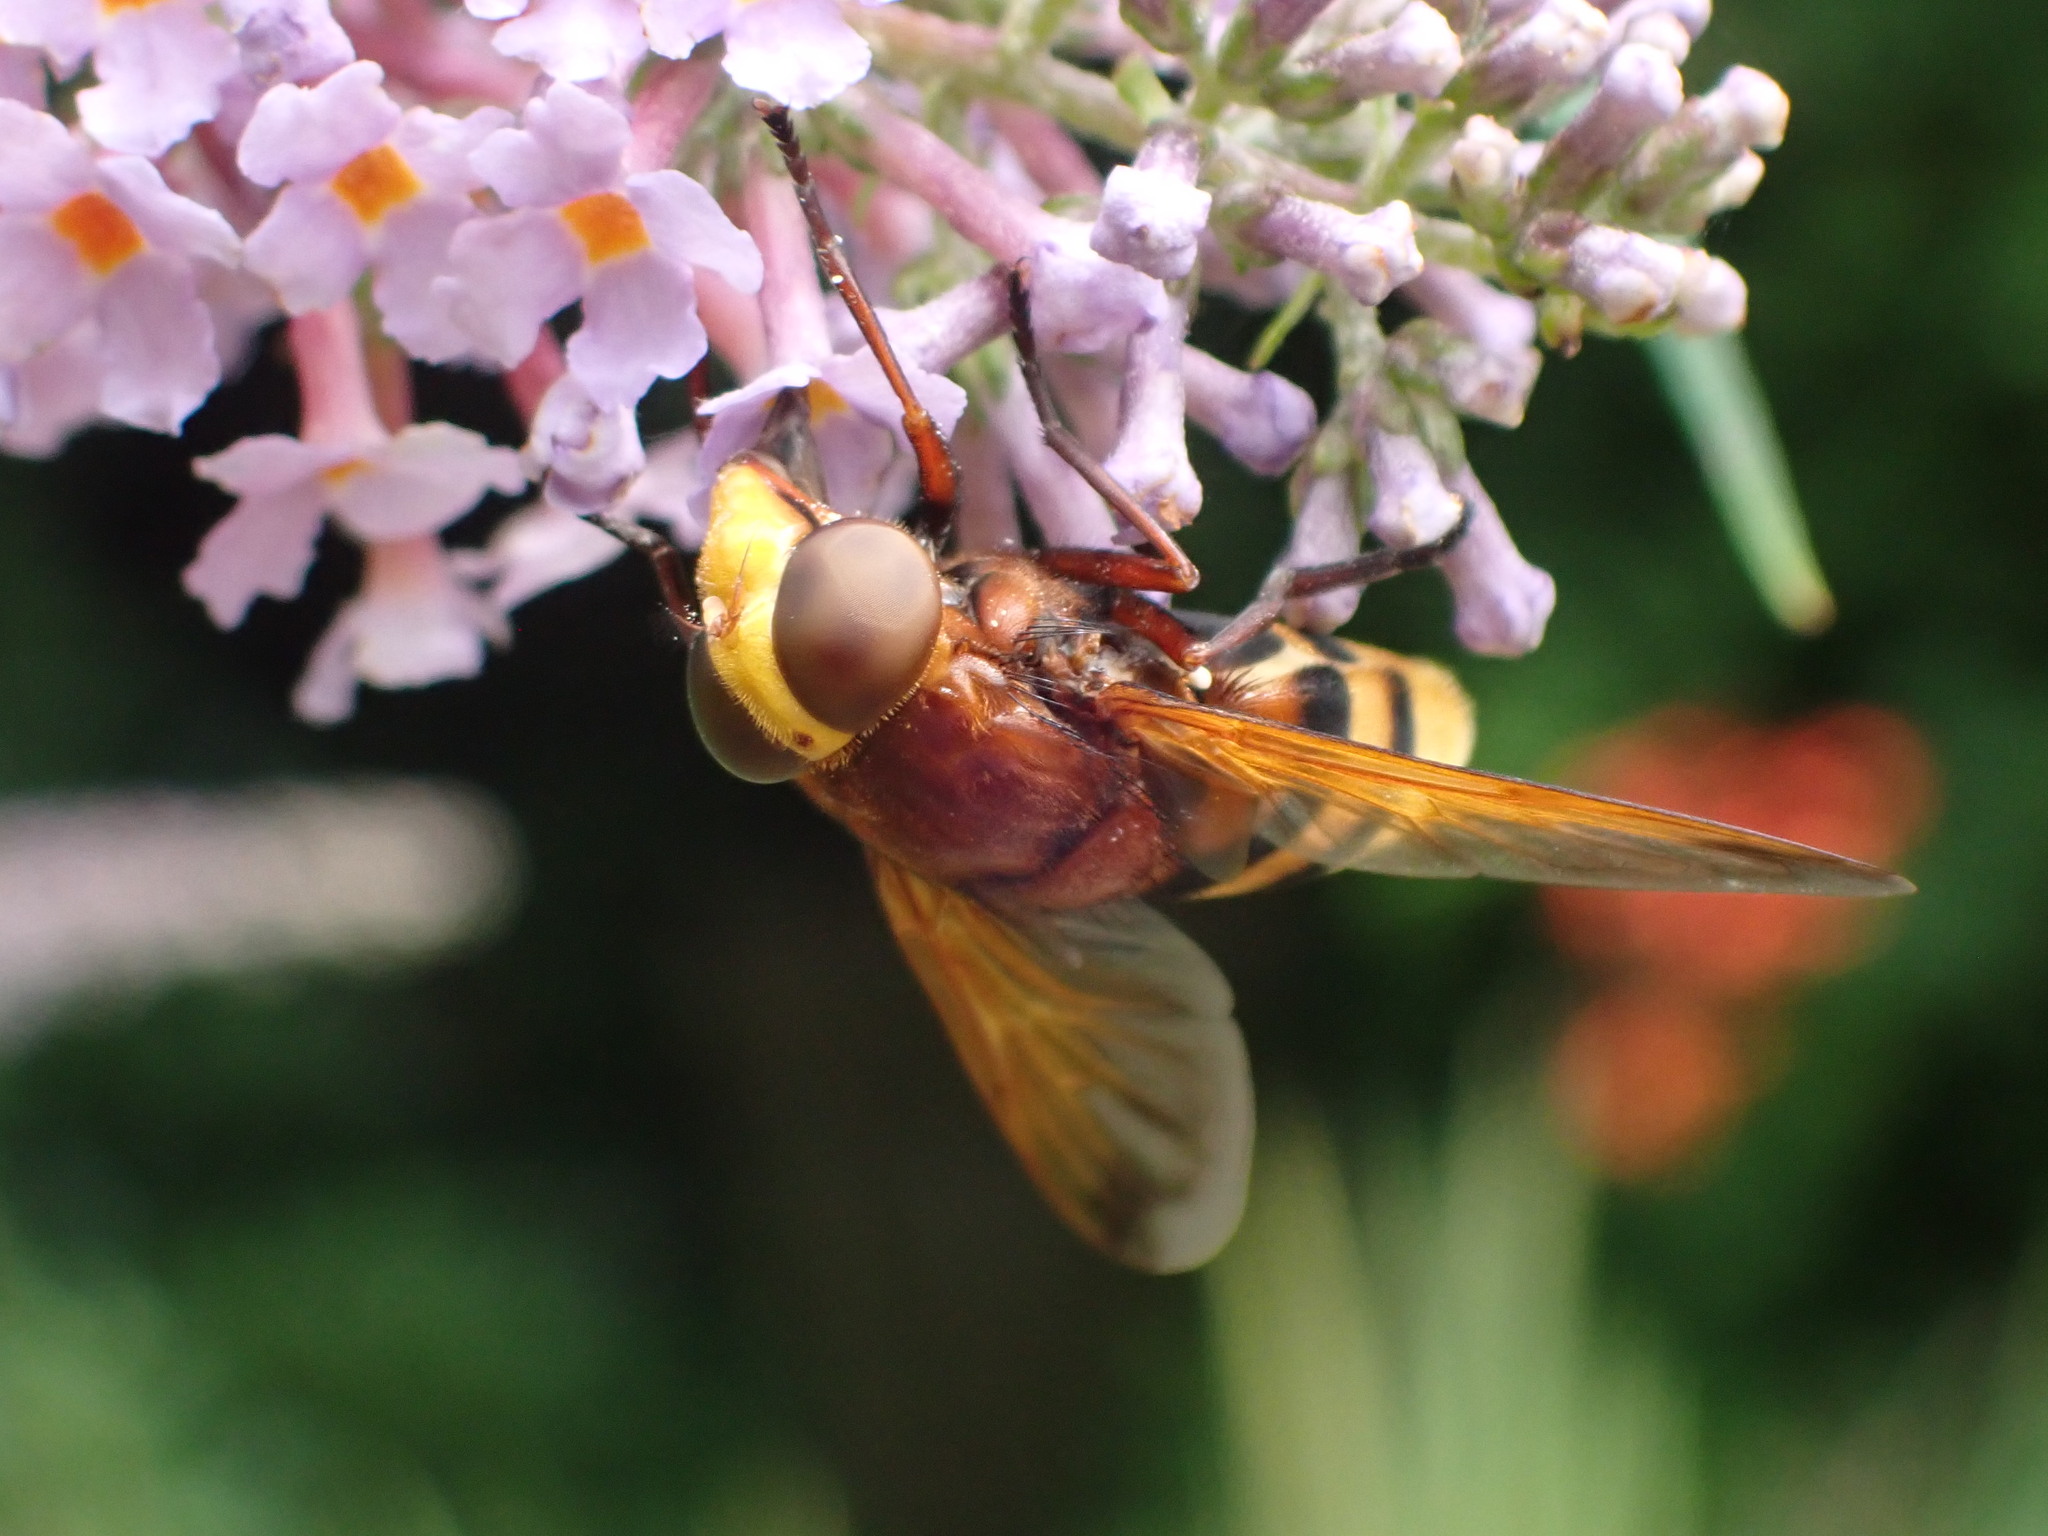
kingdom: Animalia
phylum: Arthropoda
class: Insecta
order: Diptera
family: Syrphidae
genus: Volucella
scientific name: Volucella zonaria
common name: Hornet hoverfly
